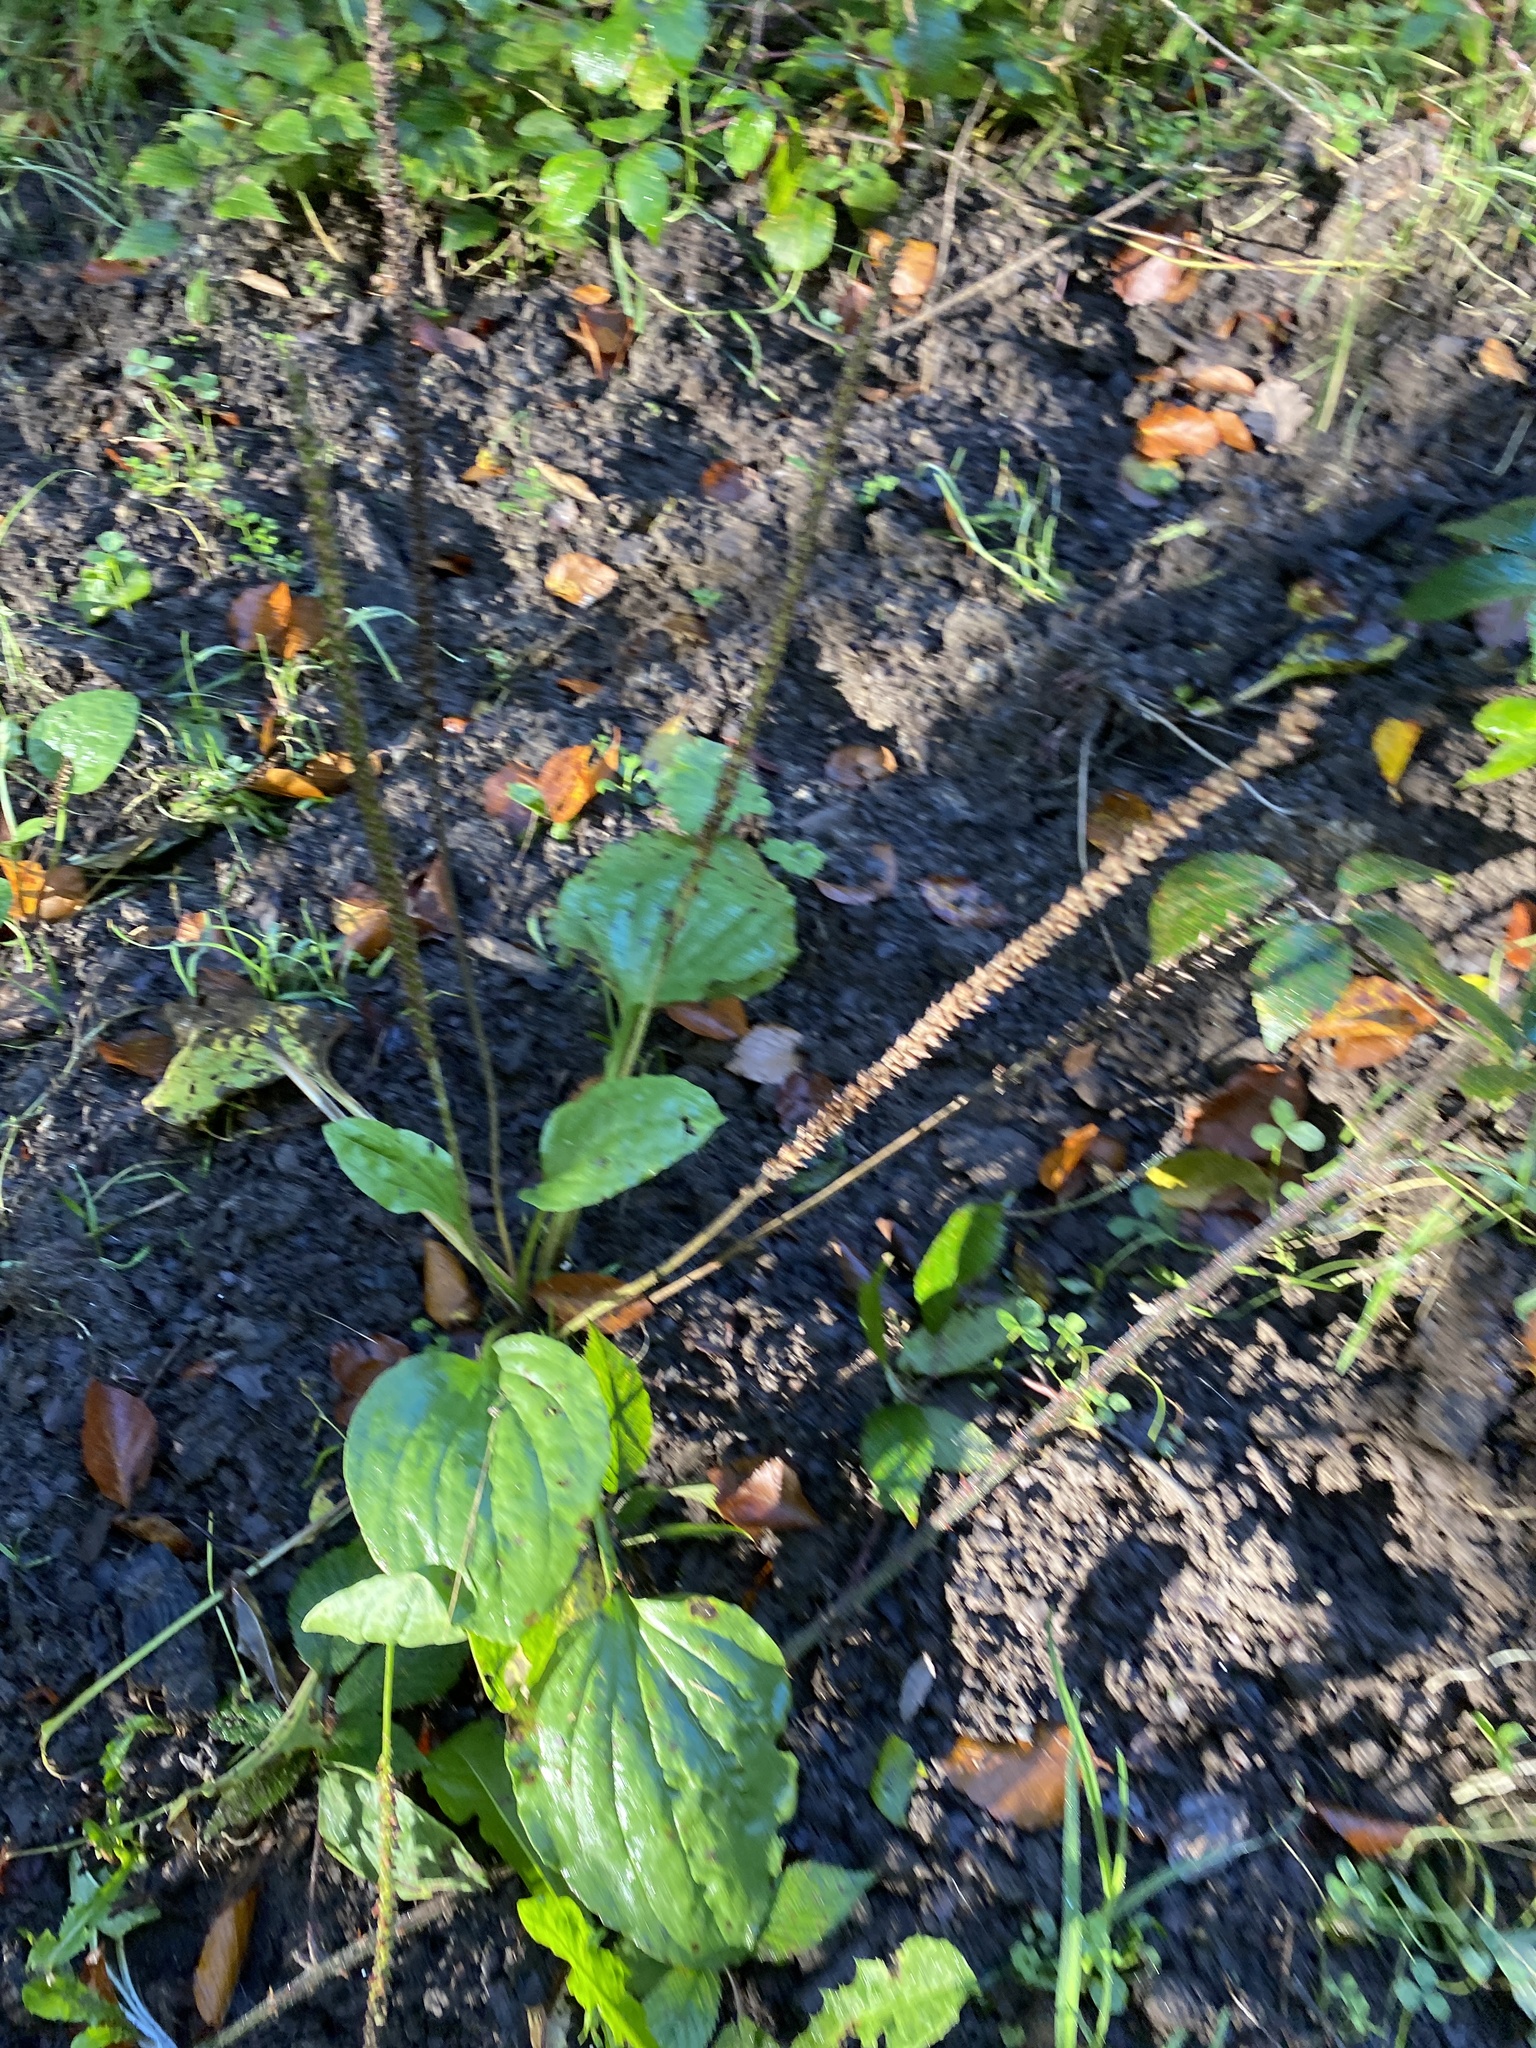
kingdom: Plantae
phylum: Tracheophyta
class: Magnoliopsida
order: Lamiales
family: Plantaginaceae
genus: Plantago
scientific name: Plantago major
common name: Common plantain
